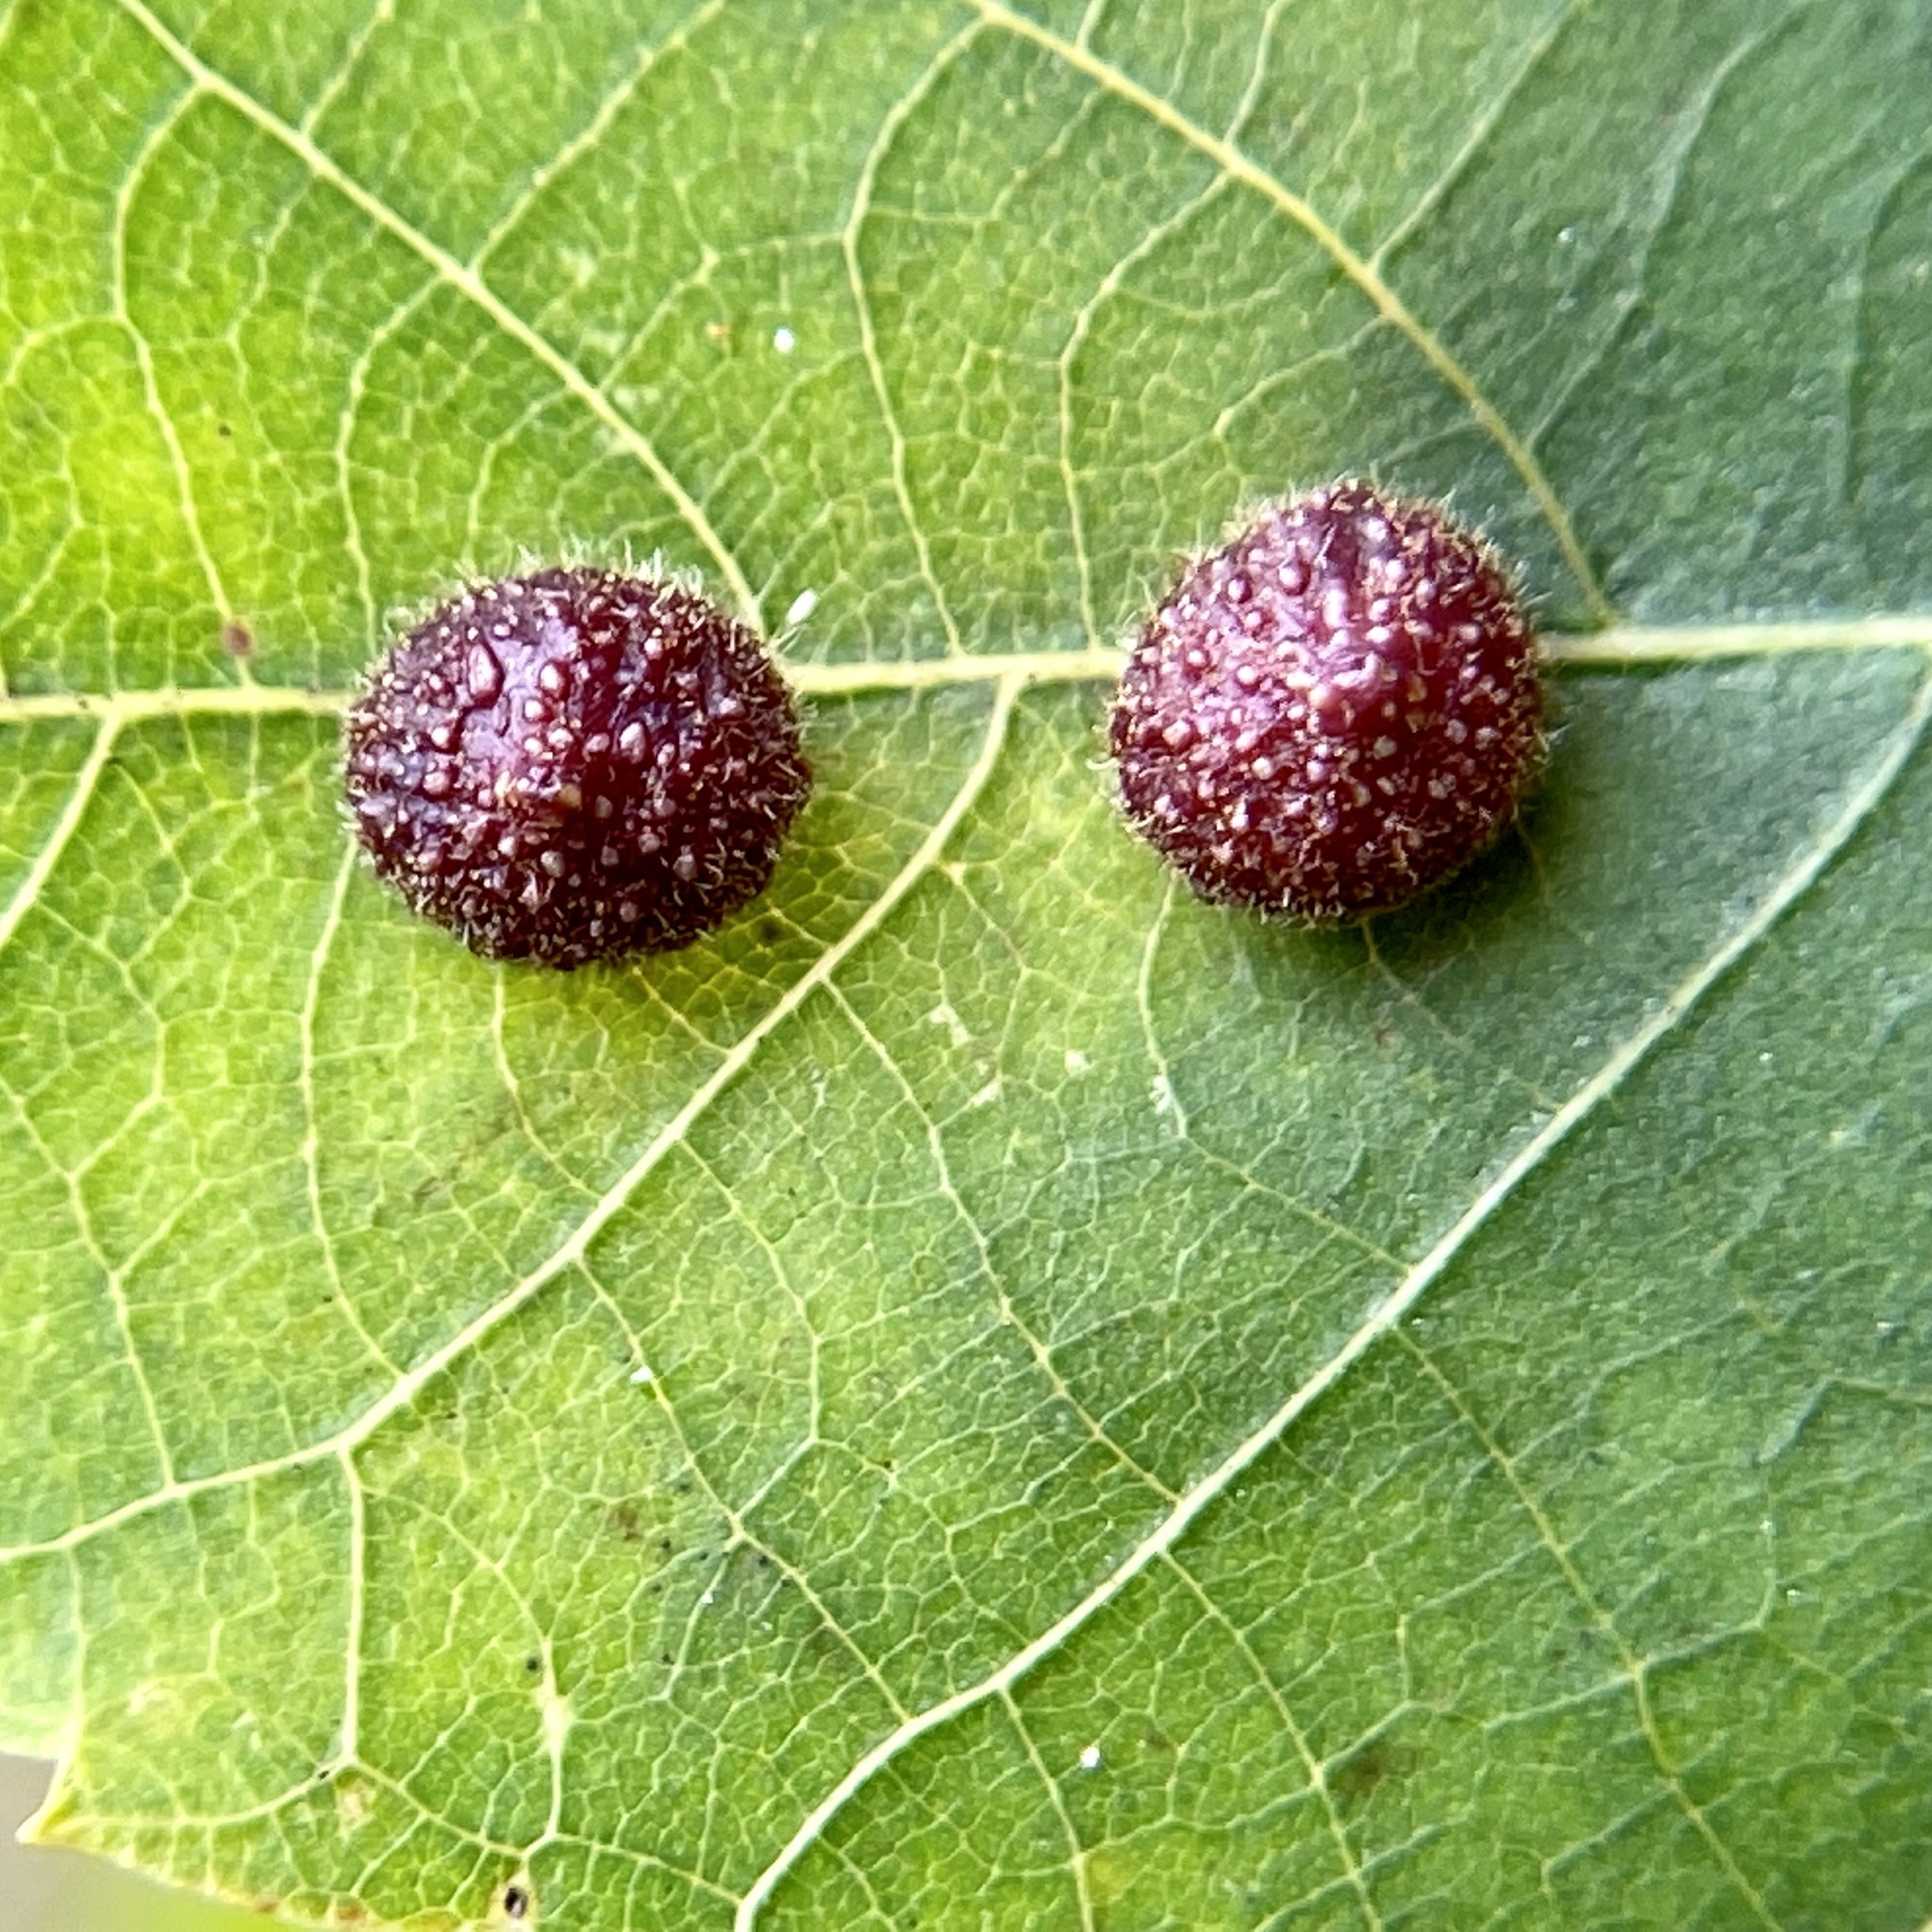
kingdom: Animalia
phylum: Arthropoda
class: Insecta
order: Diptera
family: Cecidomyiidae
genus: Caryomyia
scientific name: Caryomyia turbanella
